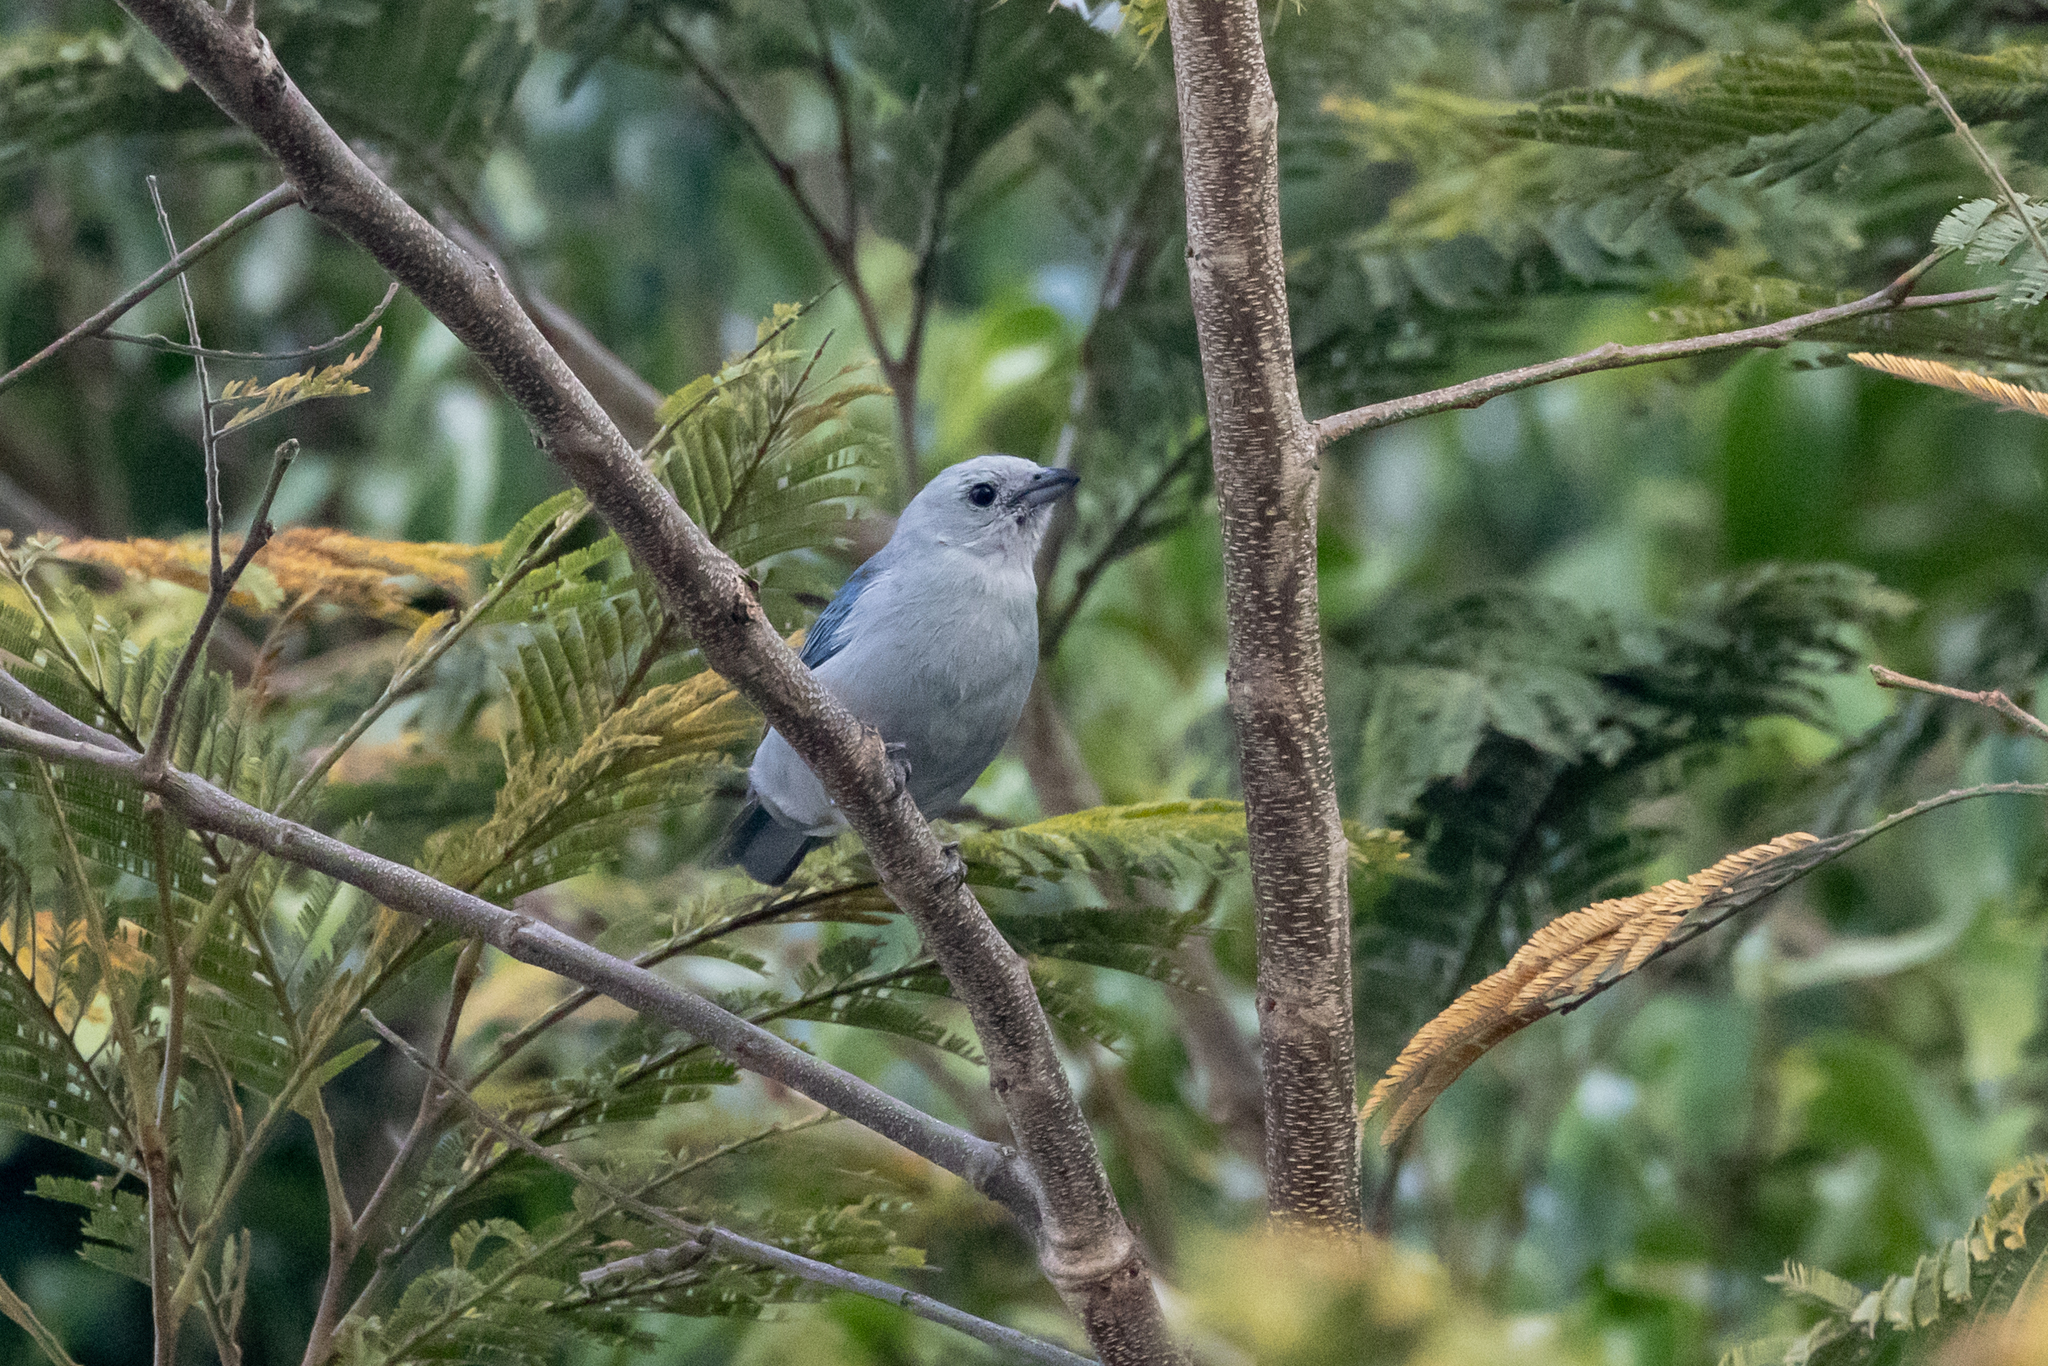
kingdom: Animalia
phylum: Chordata
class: Aves
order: Passeriformes
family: Thraupidae
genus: Thraupis
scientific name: Thraupis episcopus
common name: Blue-grey tanager
